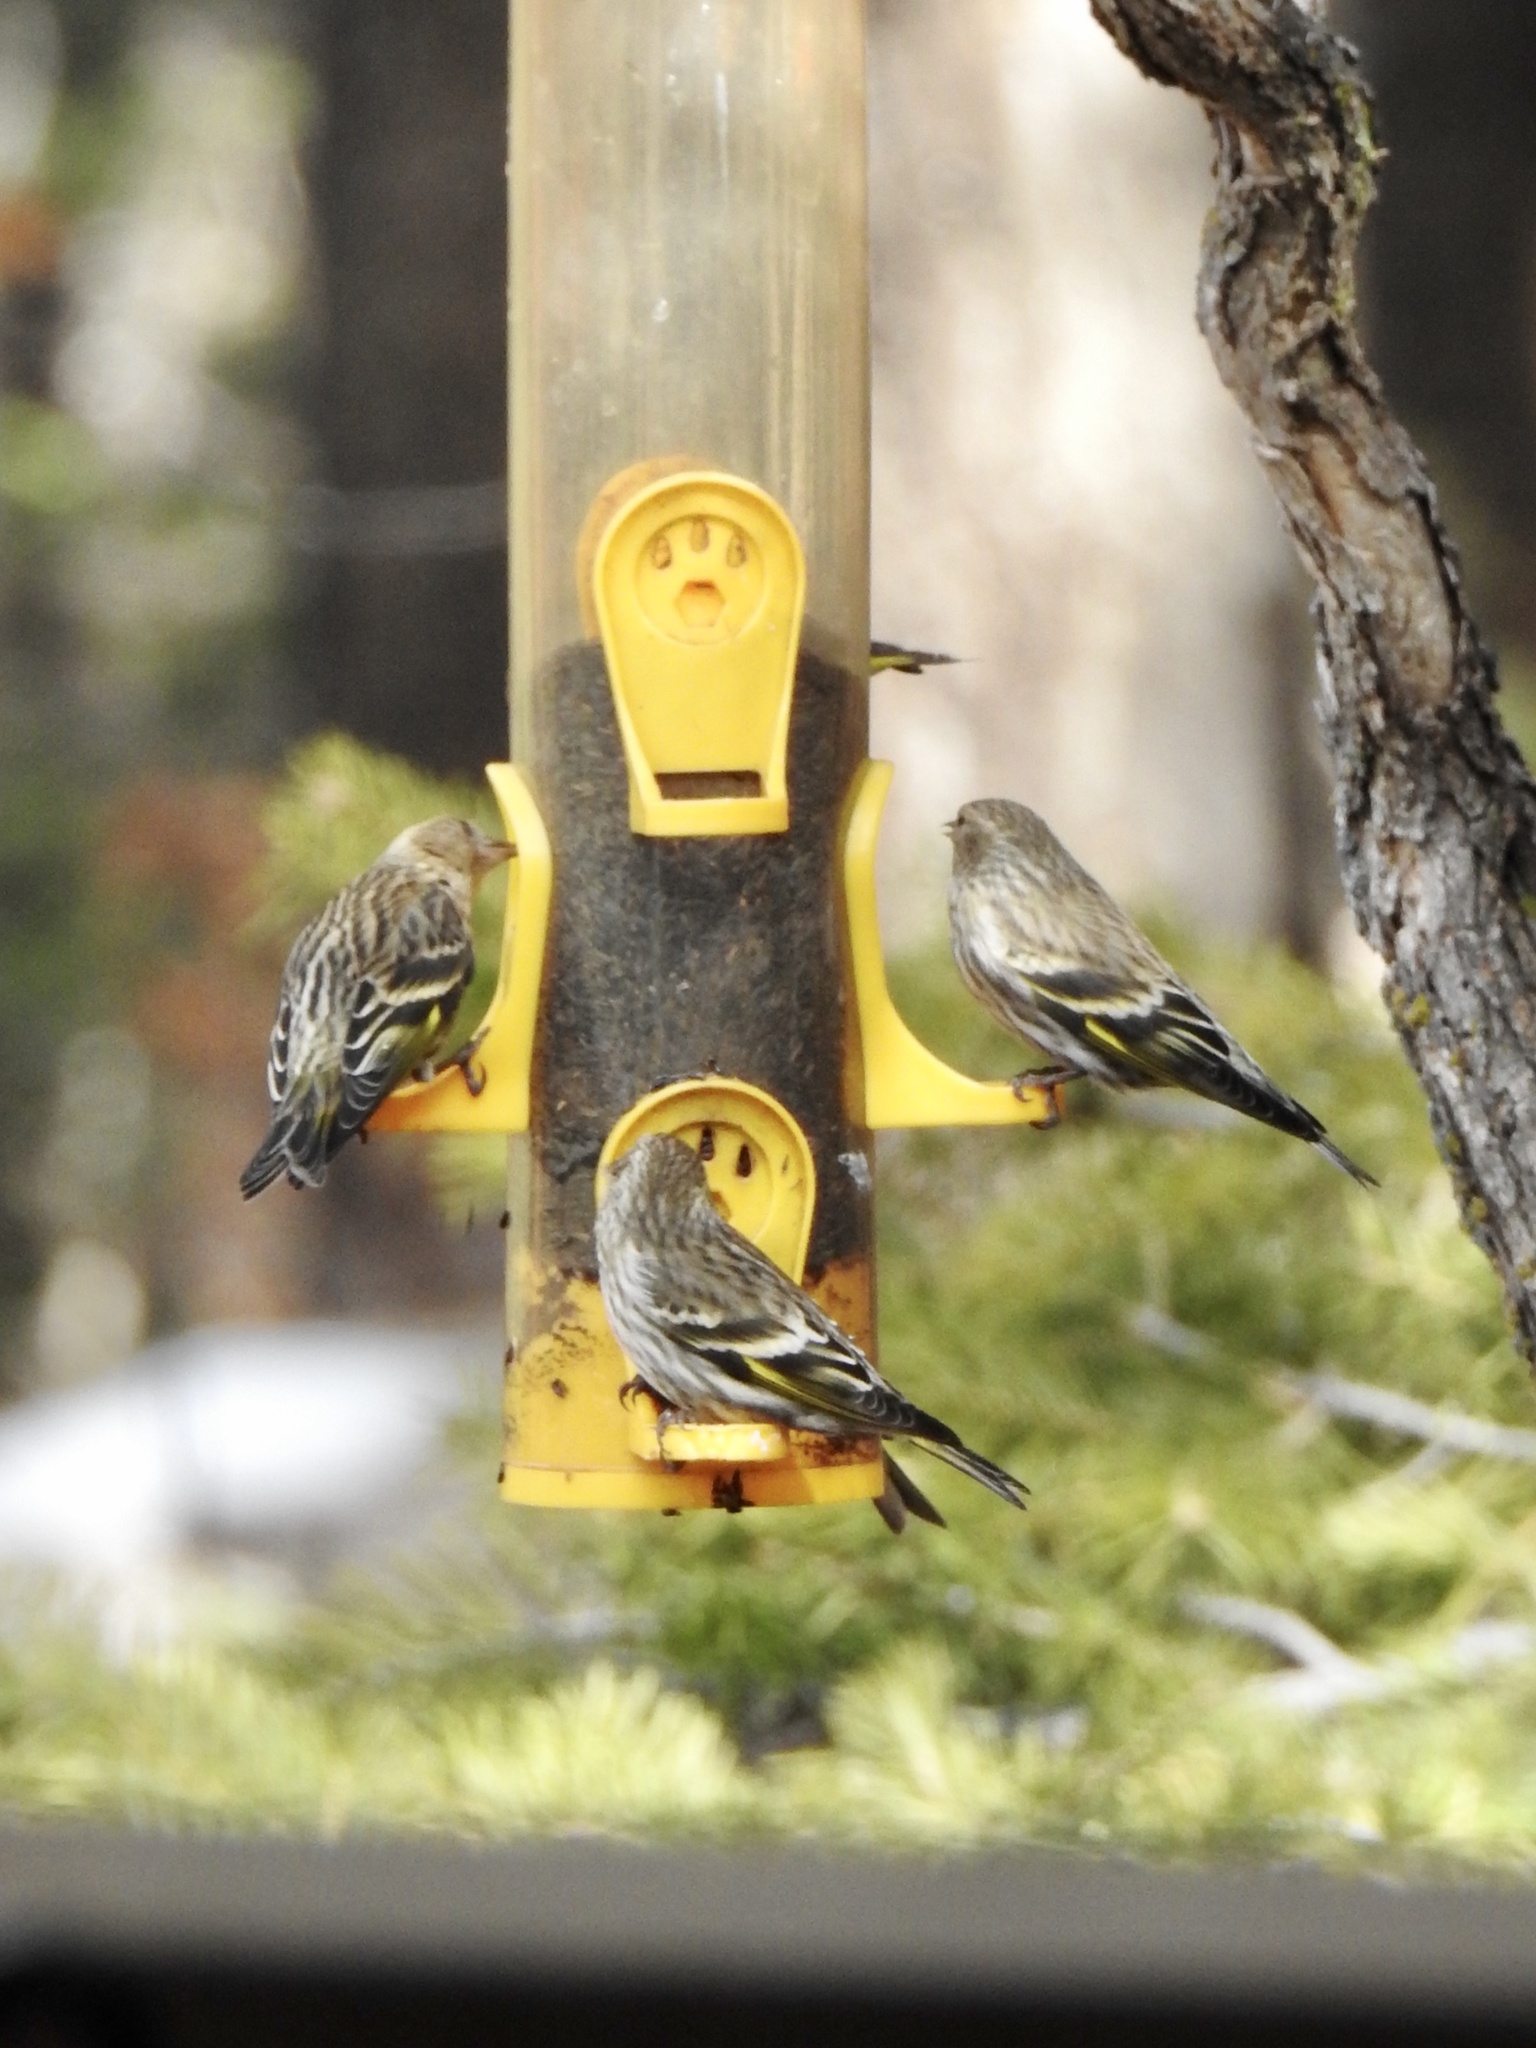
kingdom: Animalia
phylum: Chordata
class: Aves
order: Passeriformes
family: Fringillidae
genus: Spinus
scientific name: Spinus pinus
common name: Pine siskin
